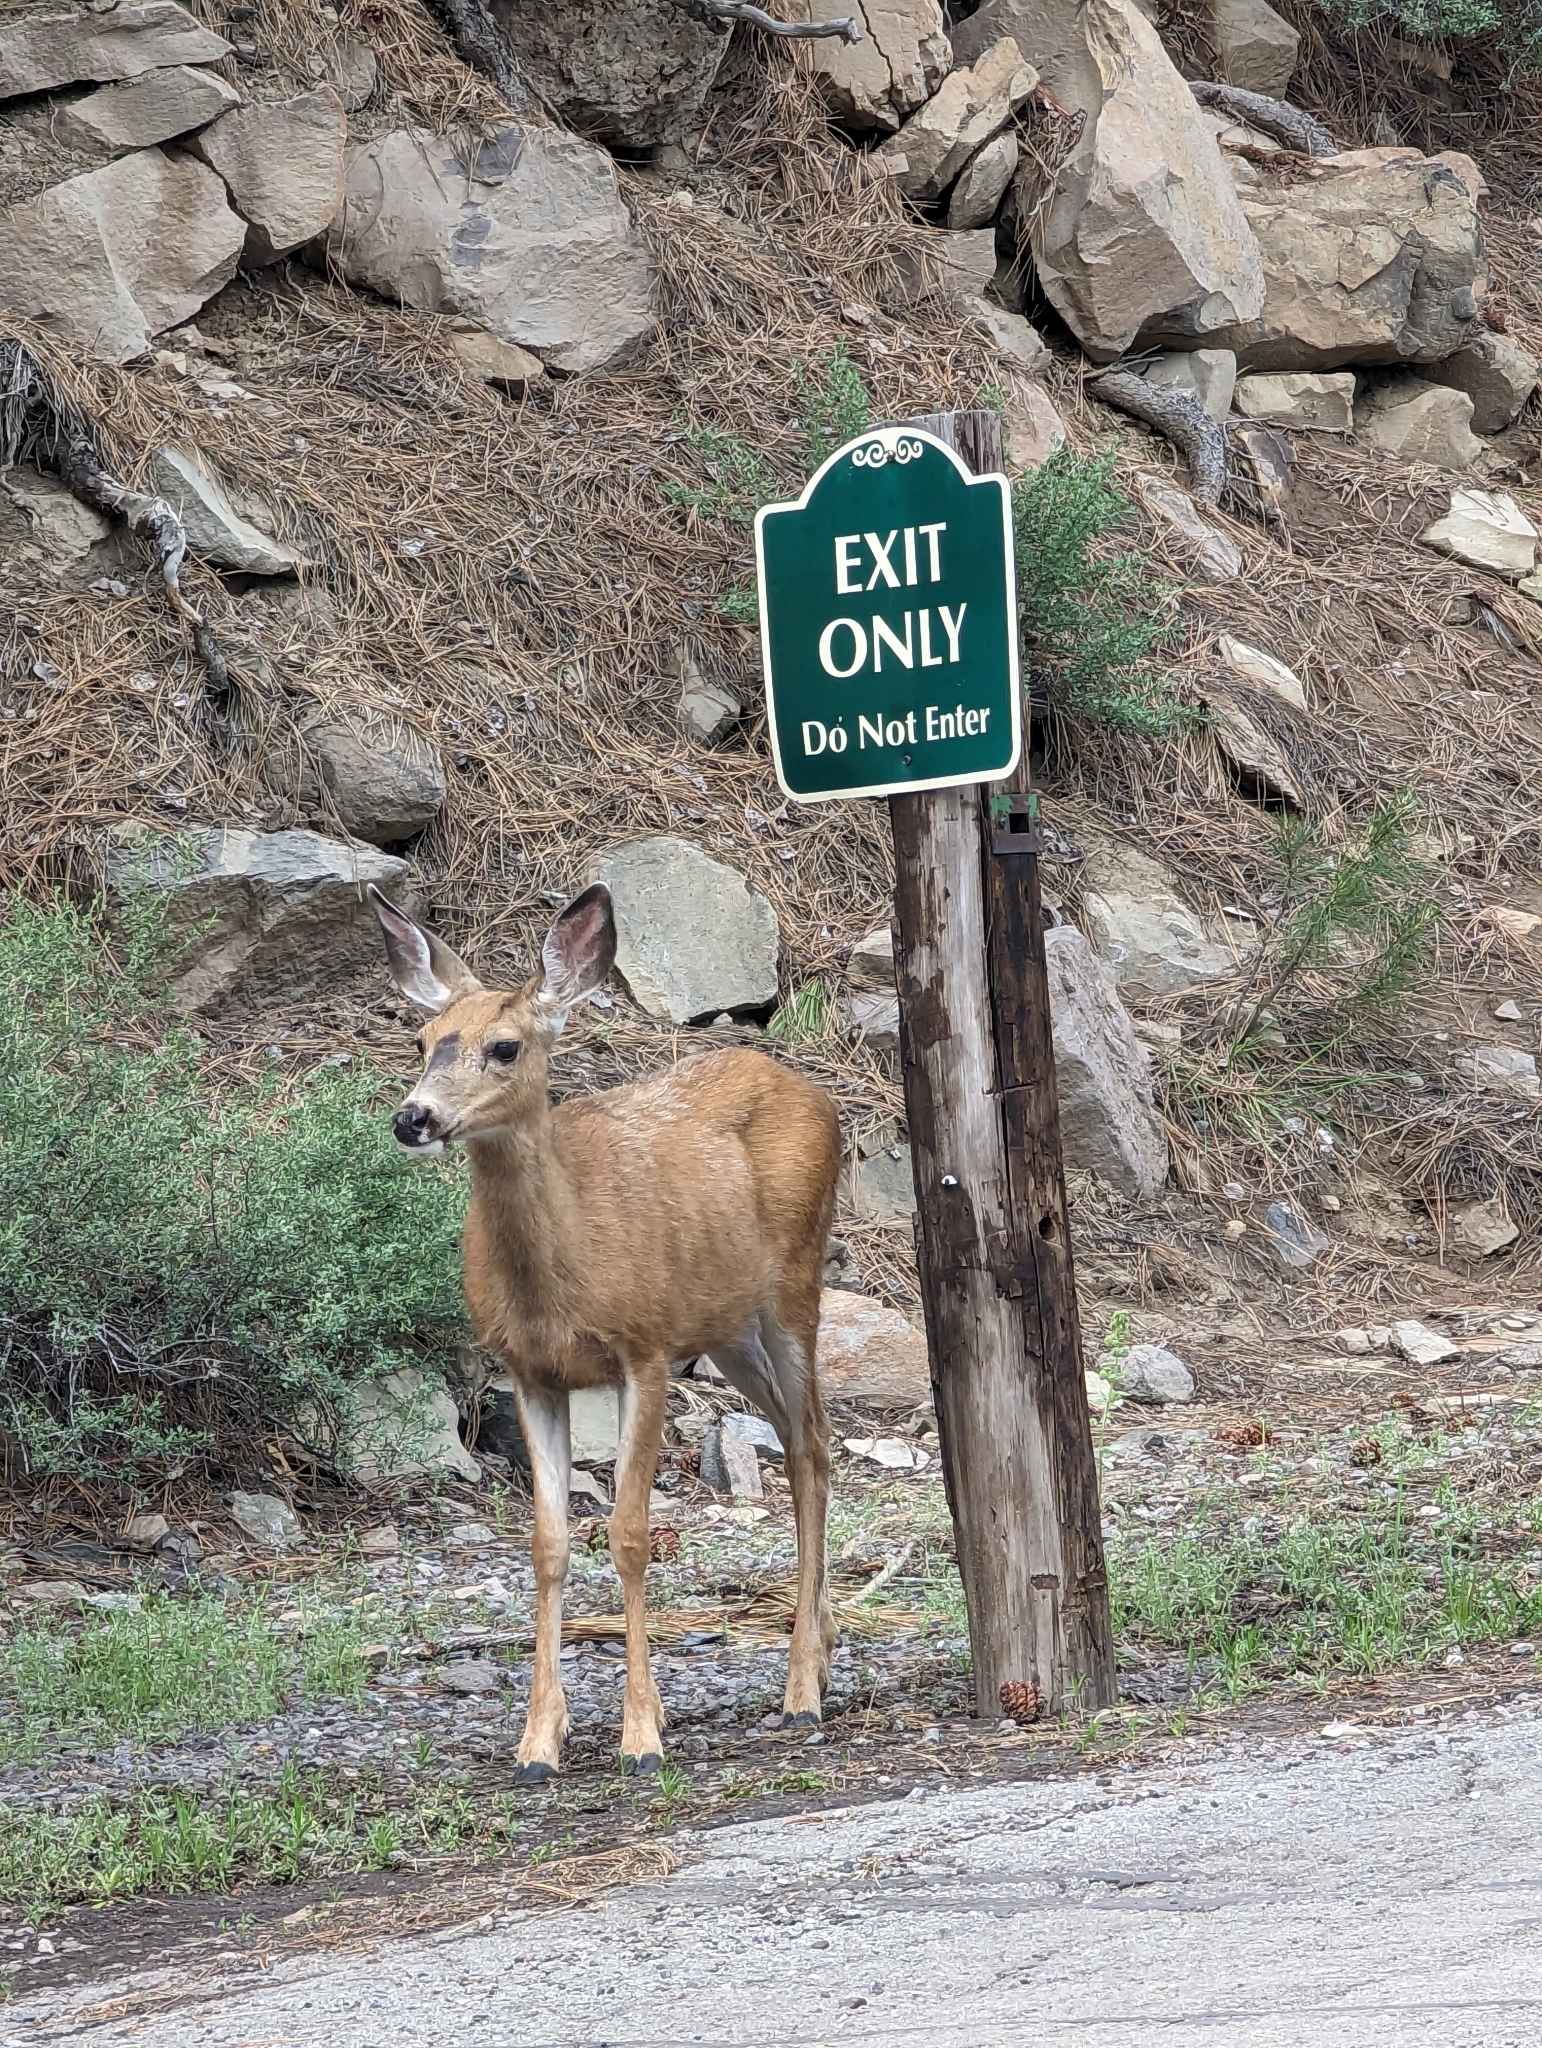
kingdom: Animalia
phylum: Chordata
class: Mammalia
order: Artiodactyla
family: Cervidae
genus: Odocoileus
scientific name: Odocoileus hemionus
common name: Mule deer
